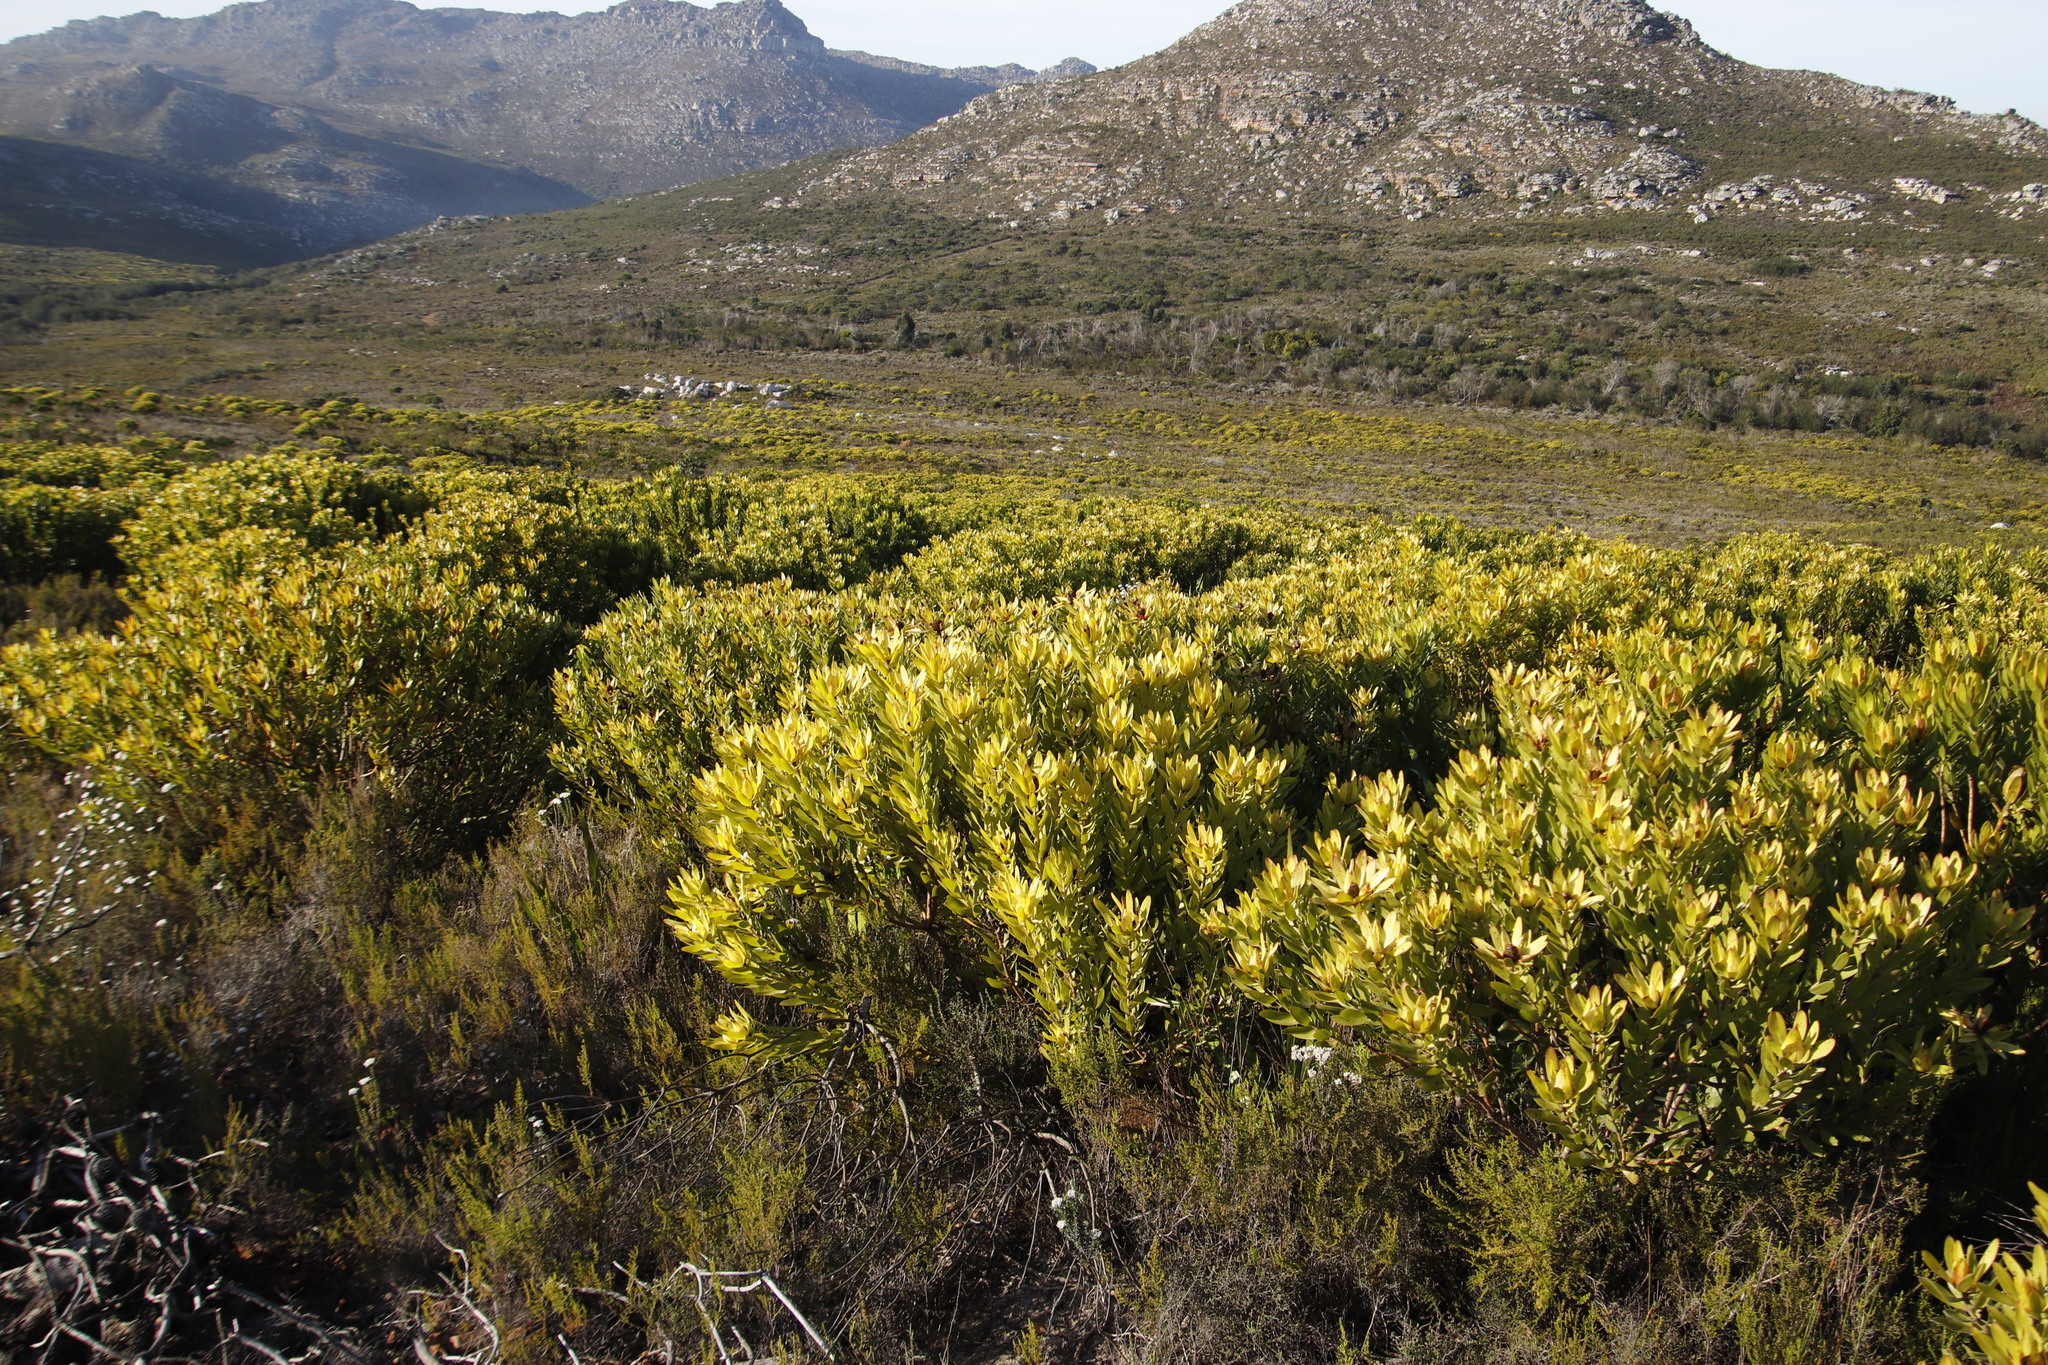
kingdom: Plantae
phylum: Tracheophyta
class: Magnoliopsida
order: Proteales
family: Proteaceae
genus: Leucadendron
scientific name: Leucadendron laureolum
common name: Golden sunshinebush
